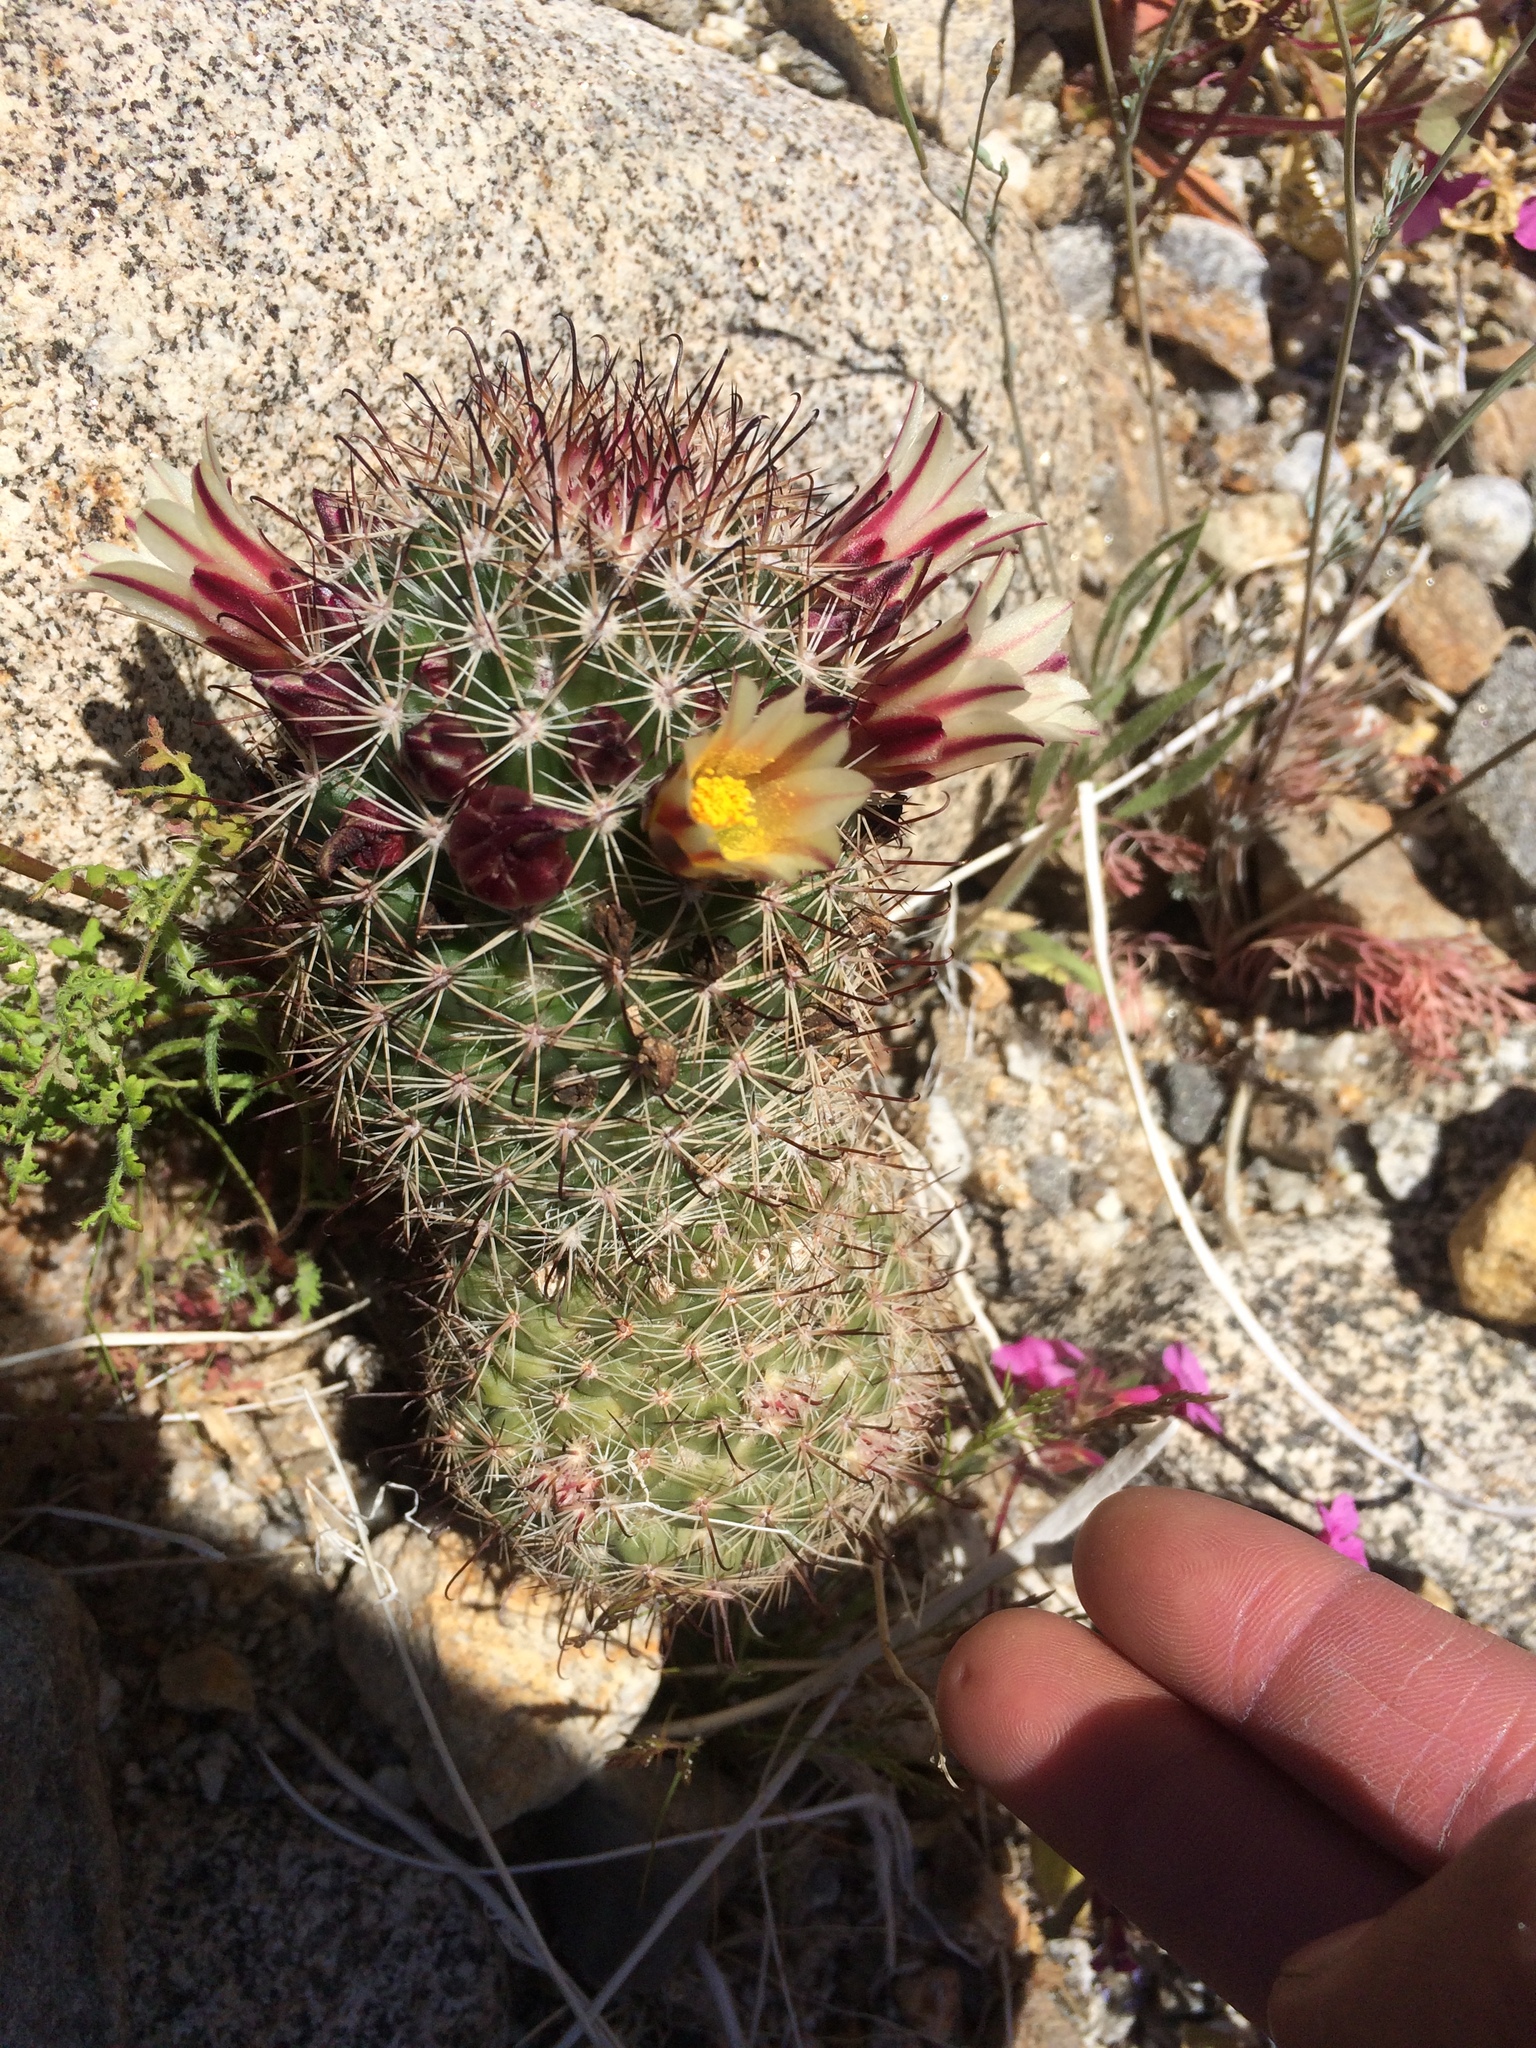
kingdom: Plantae
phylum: Tracheophyta
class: Magnoliopsida
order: Caryophyllales
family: Cactaceae
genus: Cochemiea
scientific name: Cochemiea dioica
